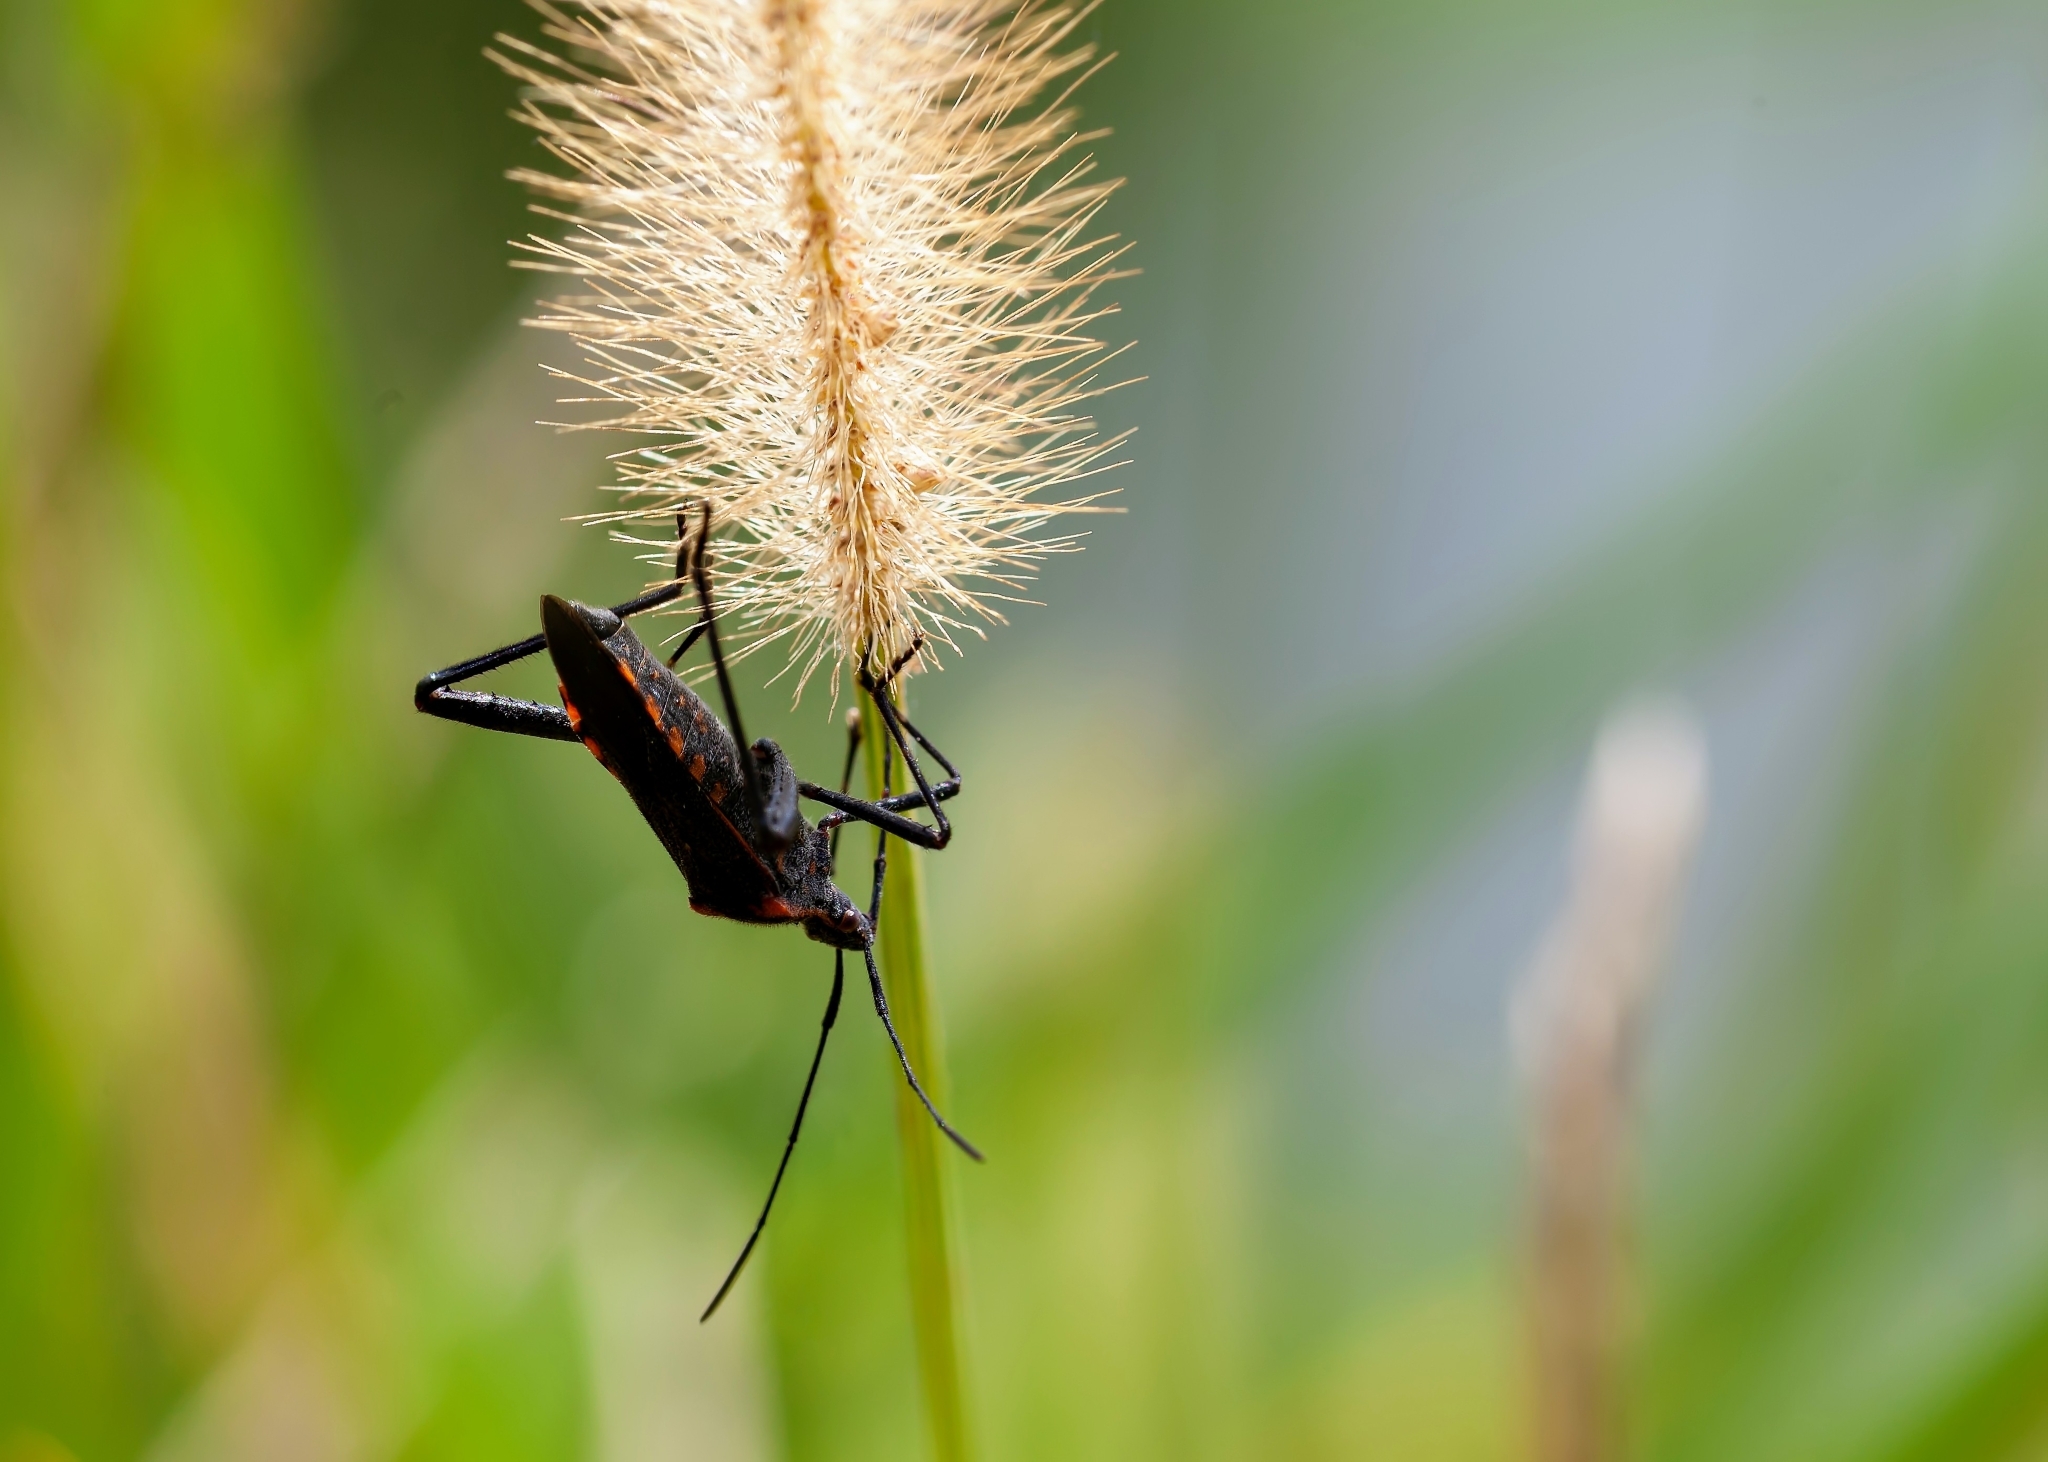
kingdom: Animalia
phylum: Arthropoda
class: Insecta
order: Hemiptera
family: Coreidae
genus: Phthiacnemia
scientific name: Phthiacnemia picta
